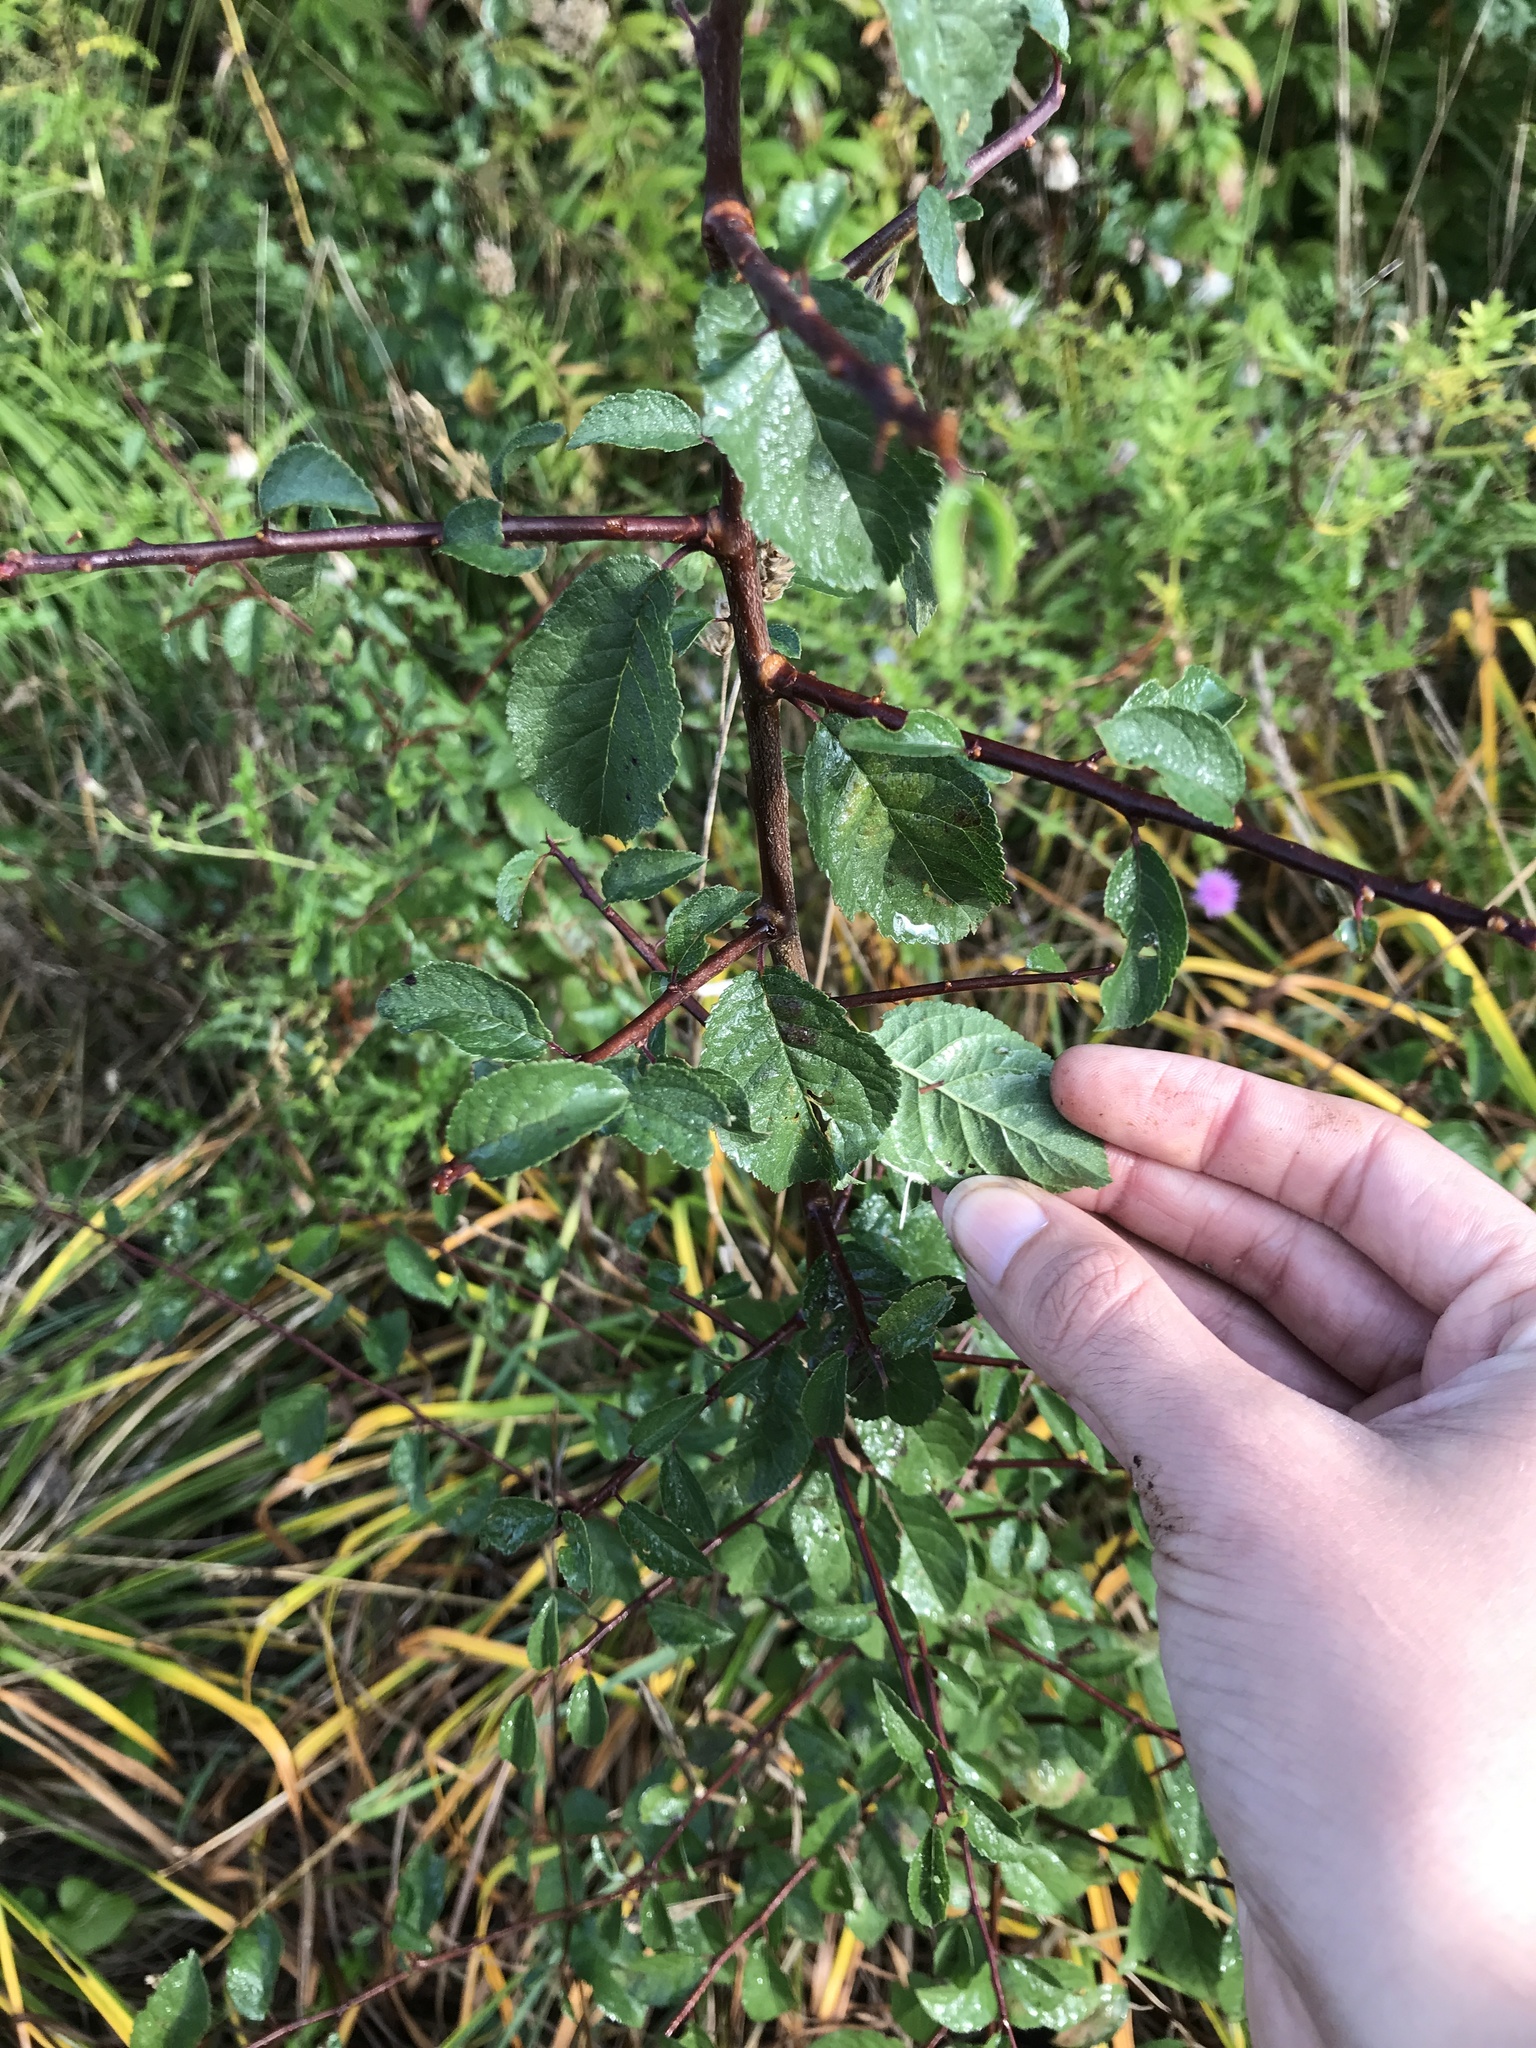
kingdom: Plantae
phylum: Tracheophyta
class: Magnoliopsida
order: Rosales
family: Rosaceae
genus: Prunus
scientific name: Prunus spinosa
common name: Blackthorn
